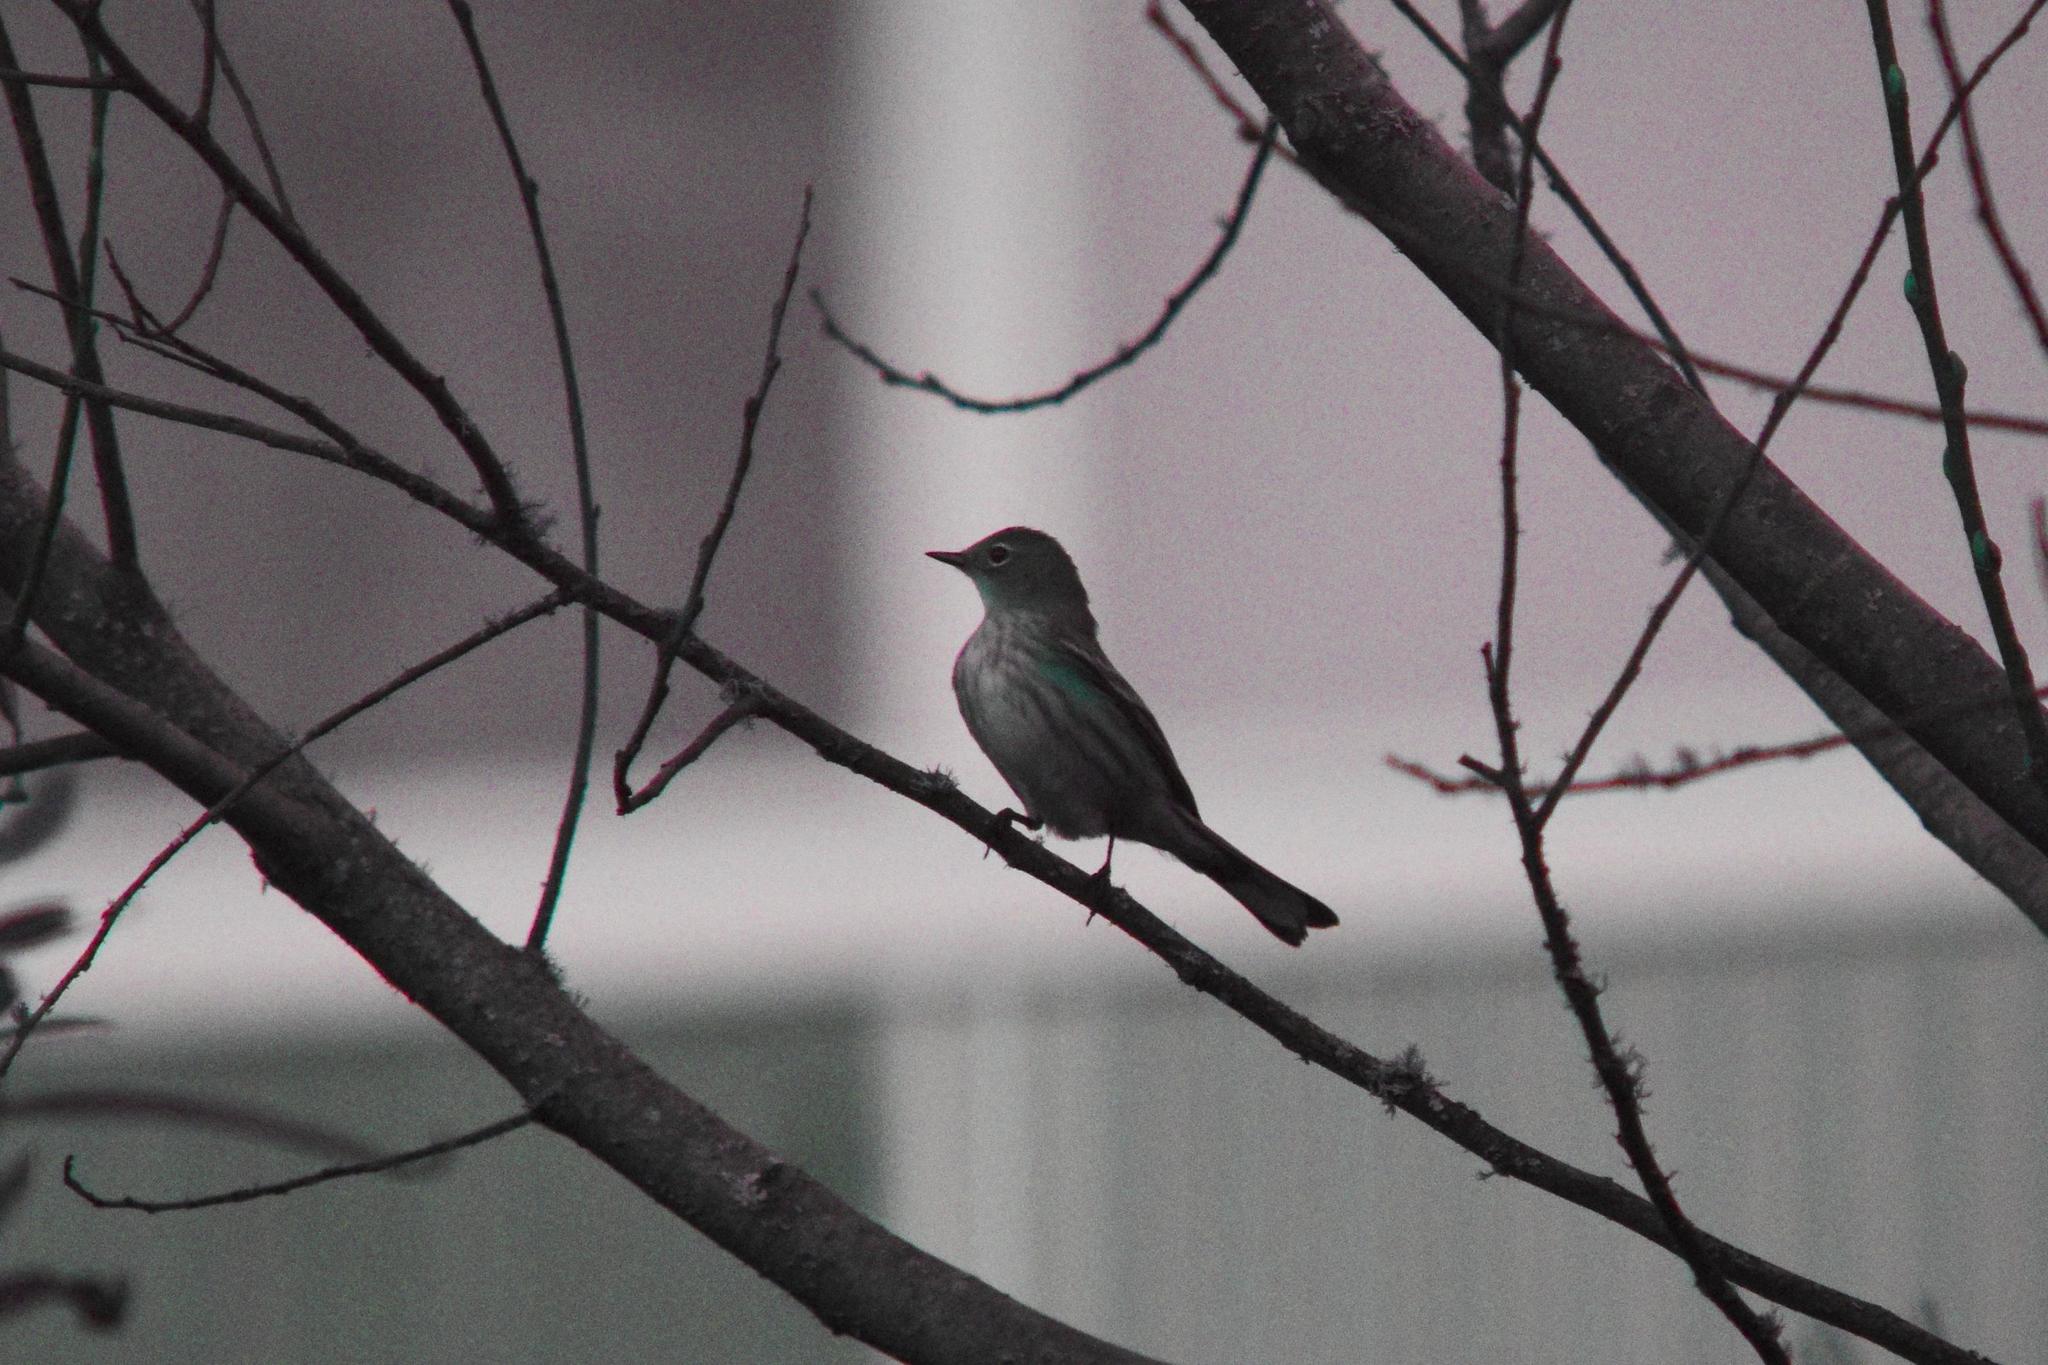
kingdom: Animalia
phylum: Chordata
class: Aves
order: Passeriformes
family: Parulidae
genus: Setophaga
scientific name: Setophaga coronata
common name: Myrtle warbler
